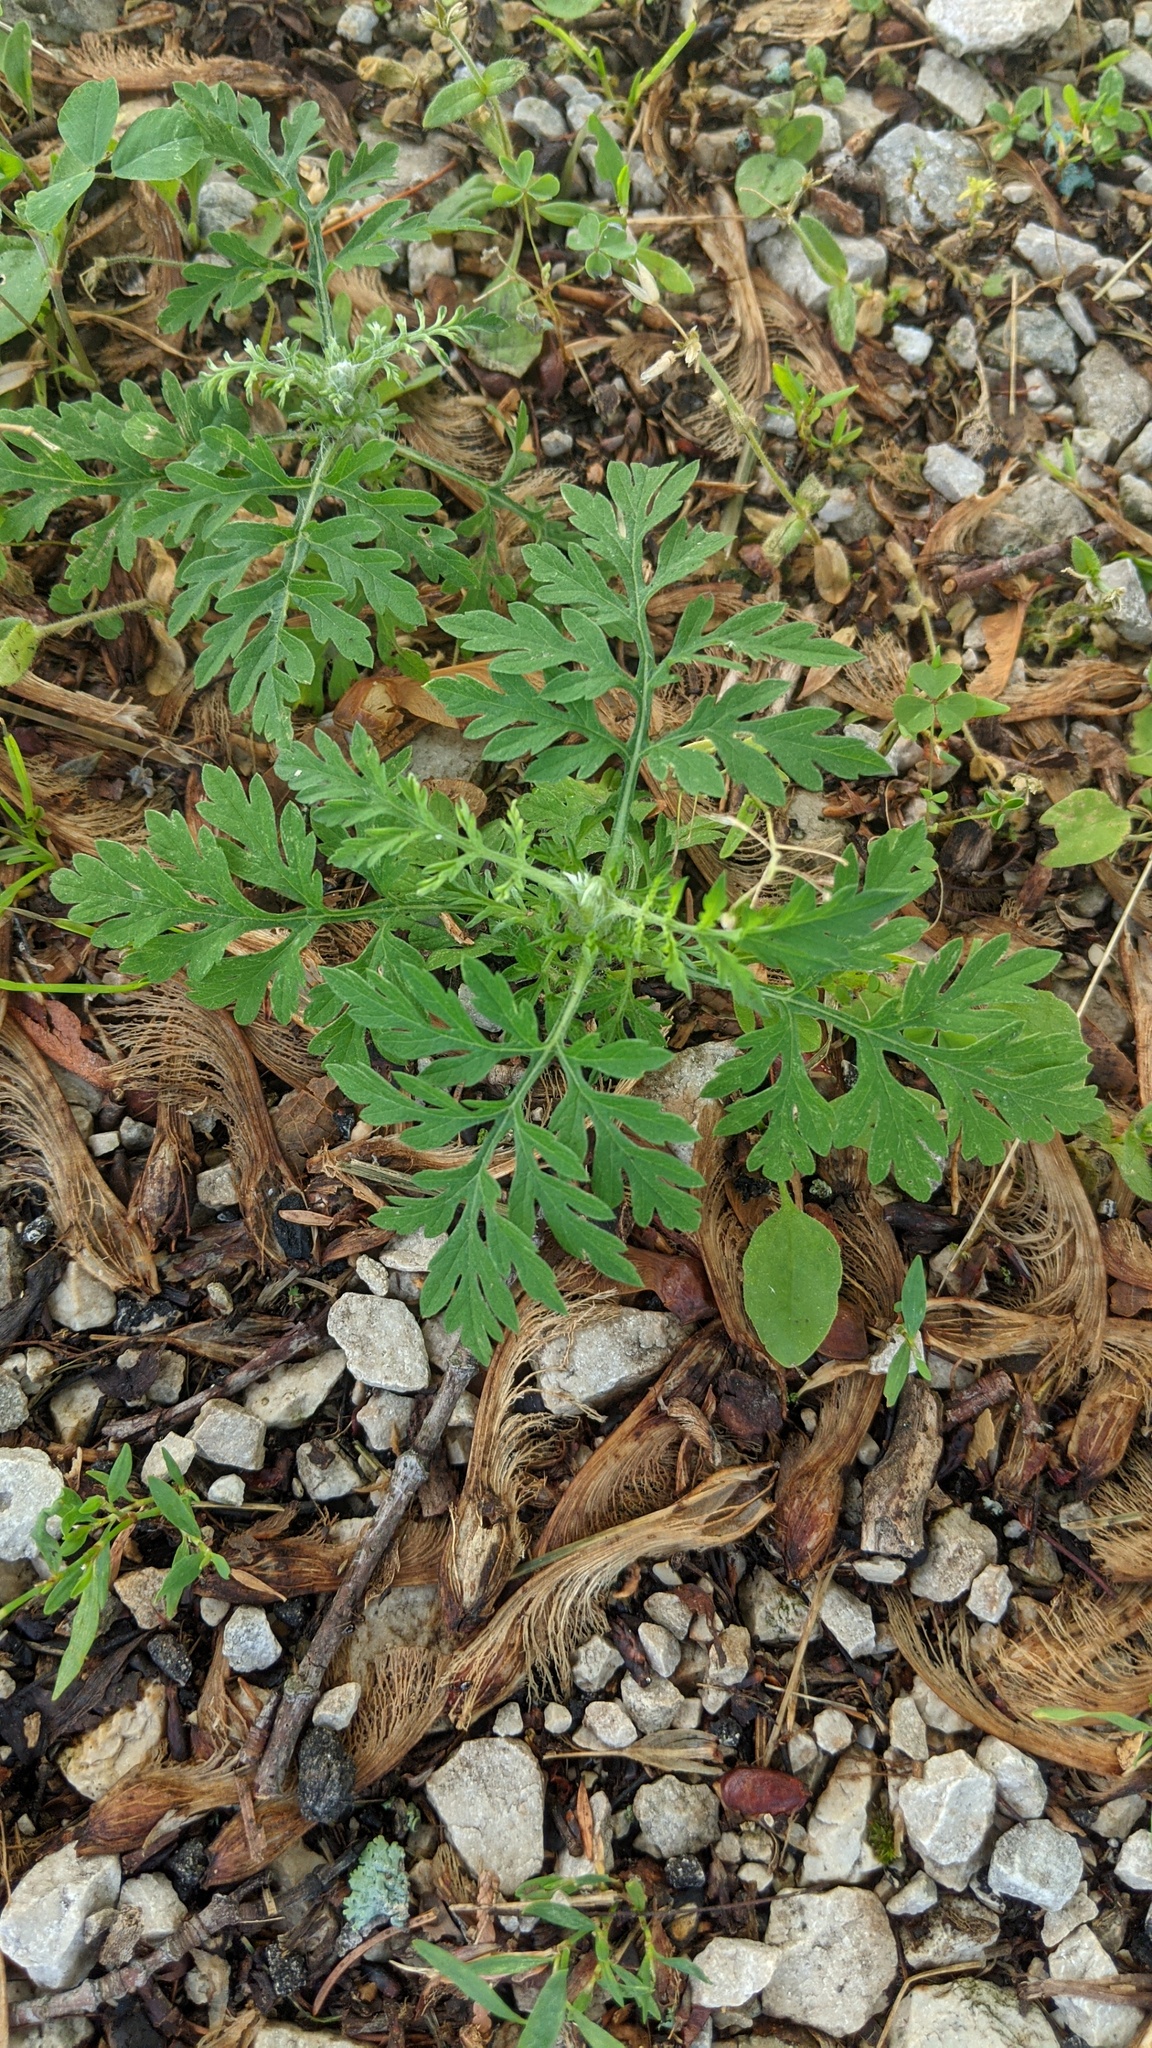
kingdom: Plantae
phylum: Tracheophyta
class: Magnoliopsida
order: Asterales
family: Asteraceae
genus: Ambrosia
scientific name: Ambrosia artemisiifolia
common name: Annual ragweed
